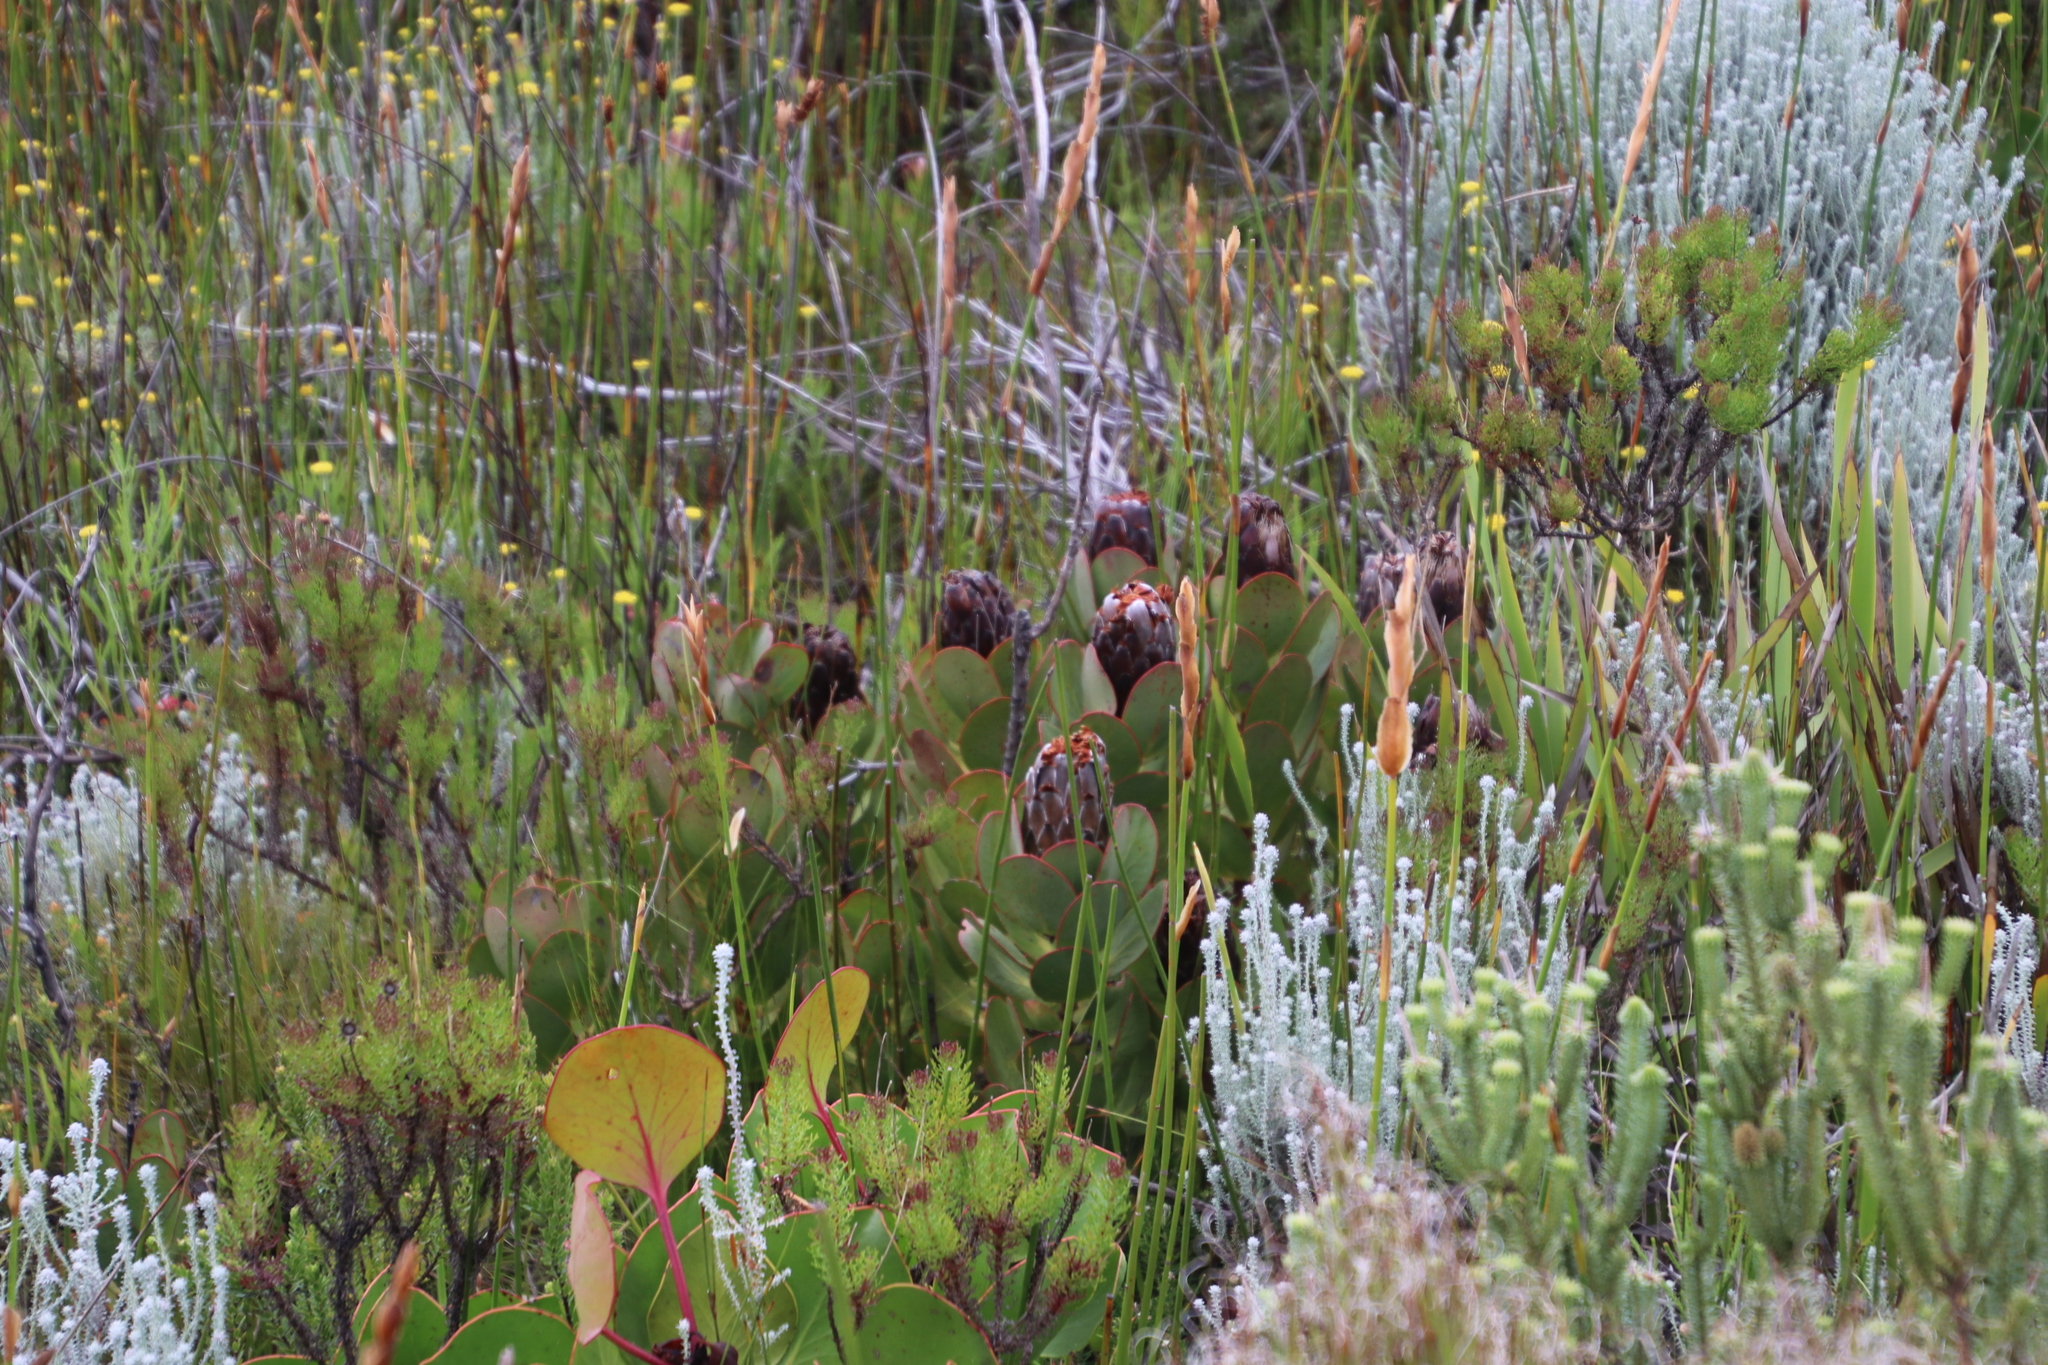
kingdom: Plantae
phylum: Tracheophyta
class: Magnoliopsida
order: Proteales
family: Proteaceae
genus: Protea
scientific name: Protea speciosa
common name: Brown-beard sugarbush
